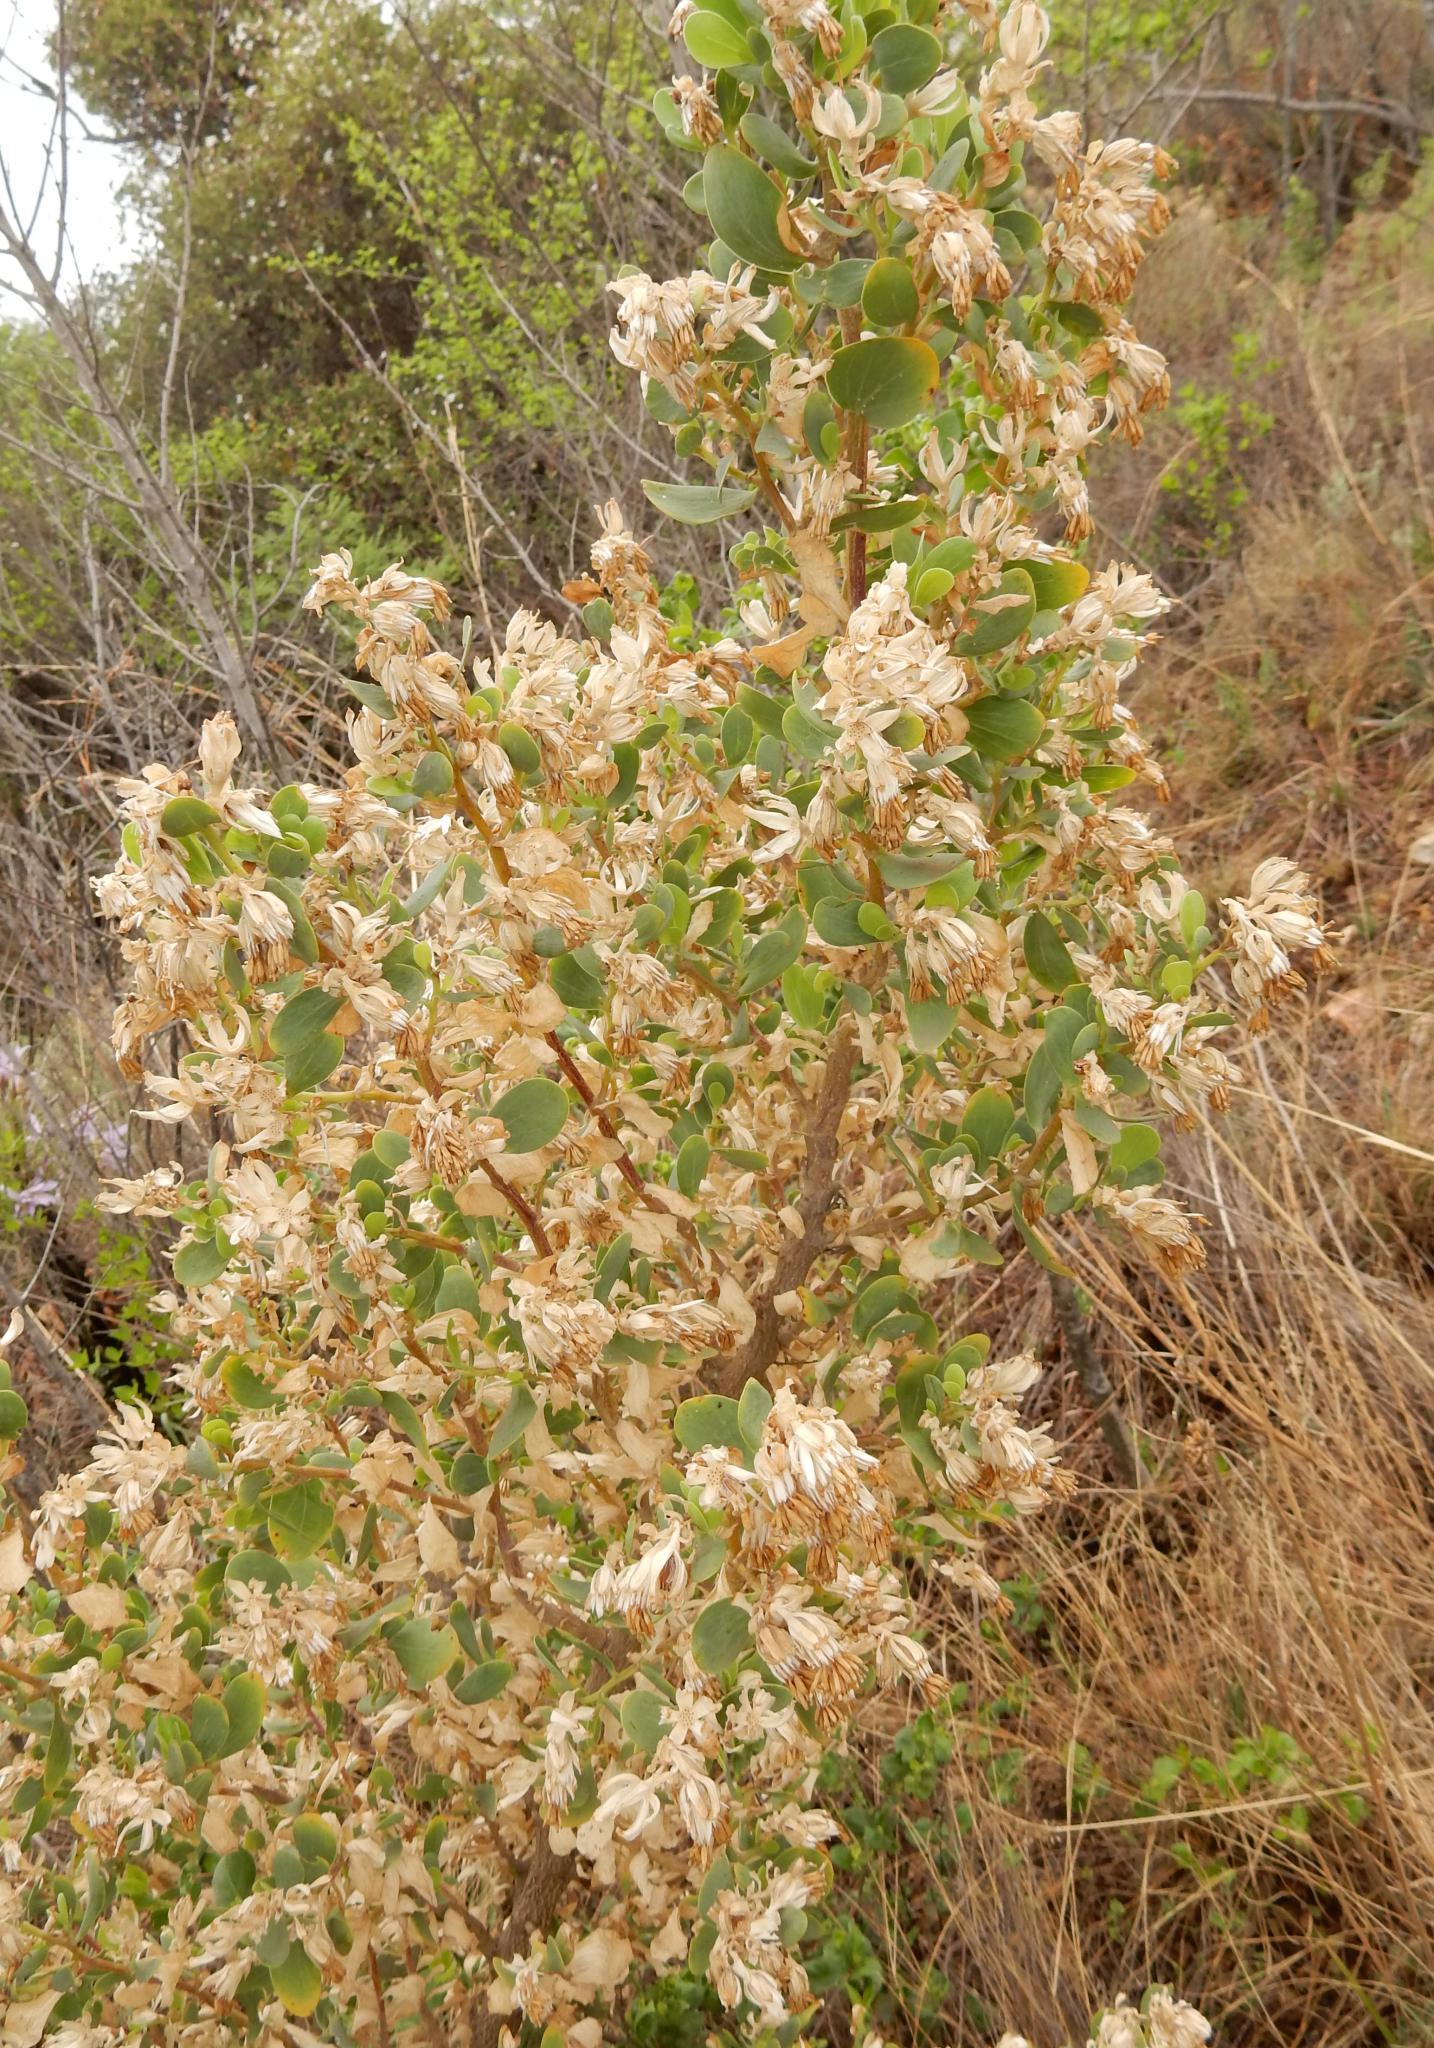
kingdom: Plantae
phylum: Tracheophyta
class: Magnoliopsida
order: Asterales
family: Asteraceae
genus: Lopholaena
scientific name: Lopholaena coriifolia
